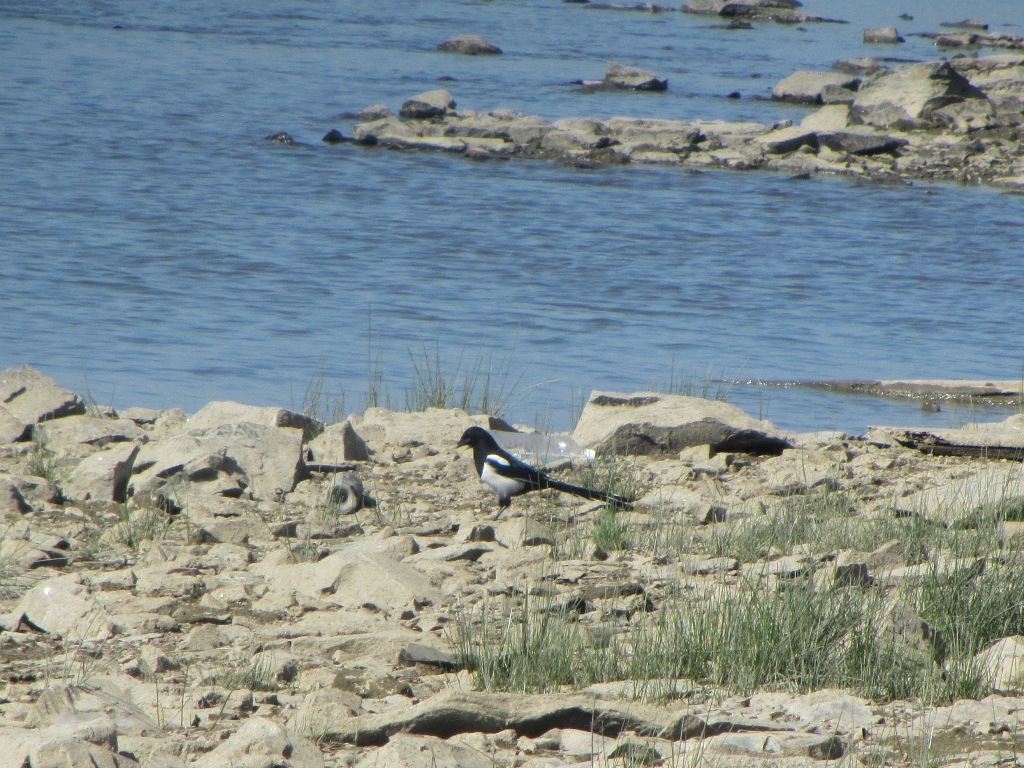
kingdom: Animalia
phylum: Chordata
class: Aves
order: Passeriformes
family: Corvidae
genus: Pica
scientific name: Pica pica
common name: Eurasian magpie
